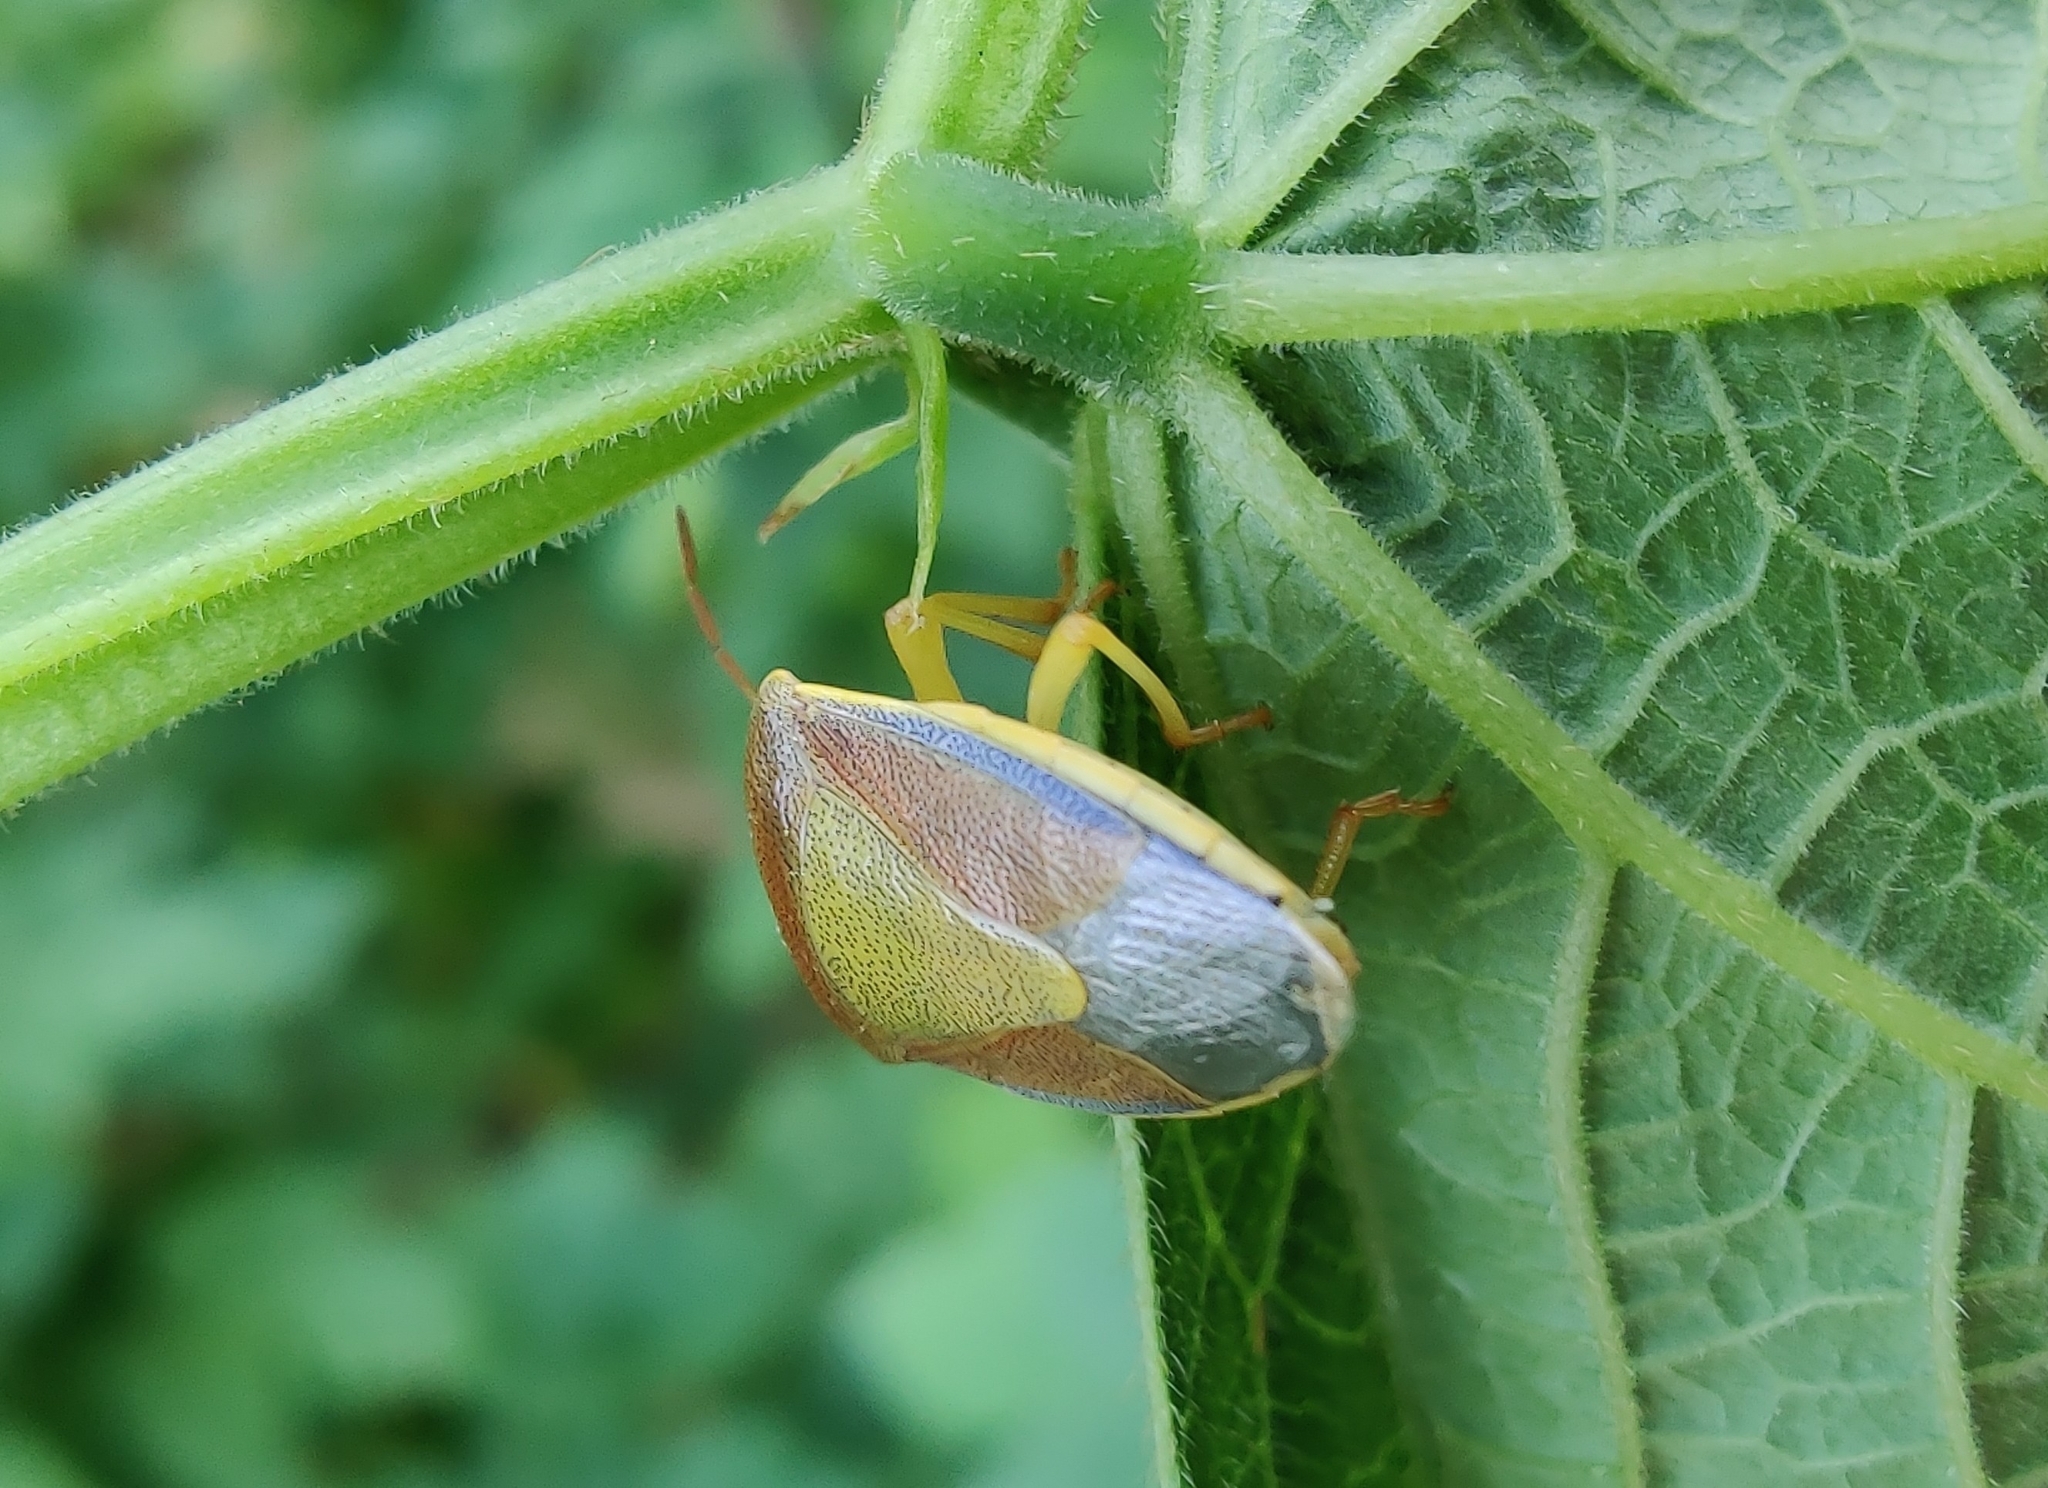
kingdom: Animalia
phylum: Arthropoda
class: Insecta
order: Hemiptera
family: Pentatomidae
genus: Piezodorus
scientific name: Piezodorus lituratus
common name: Stink bug
